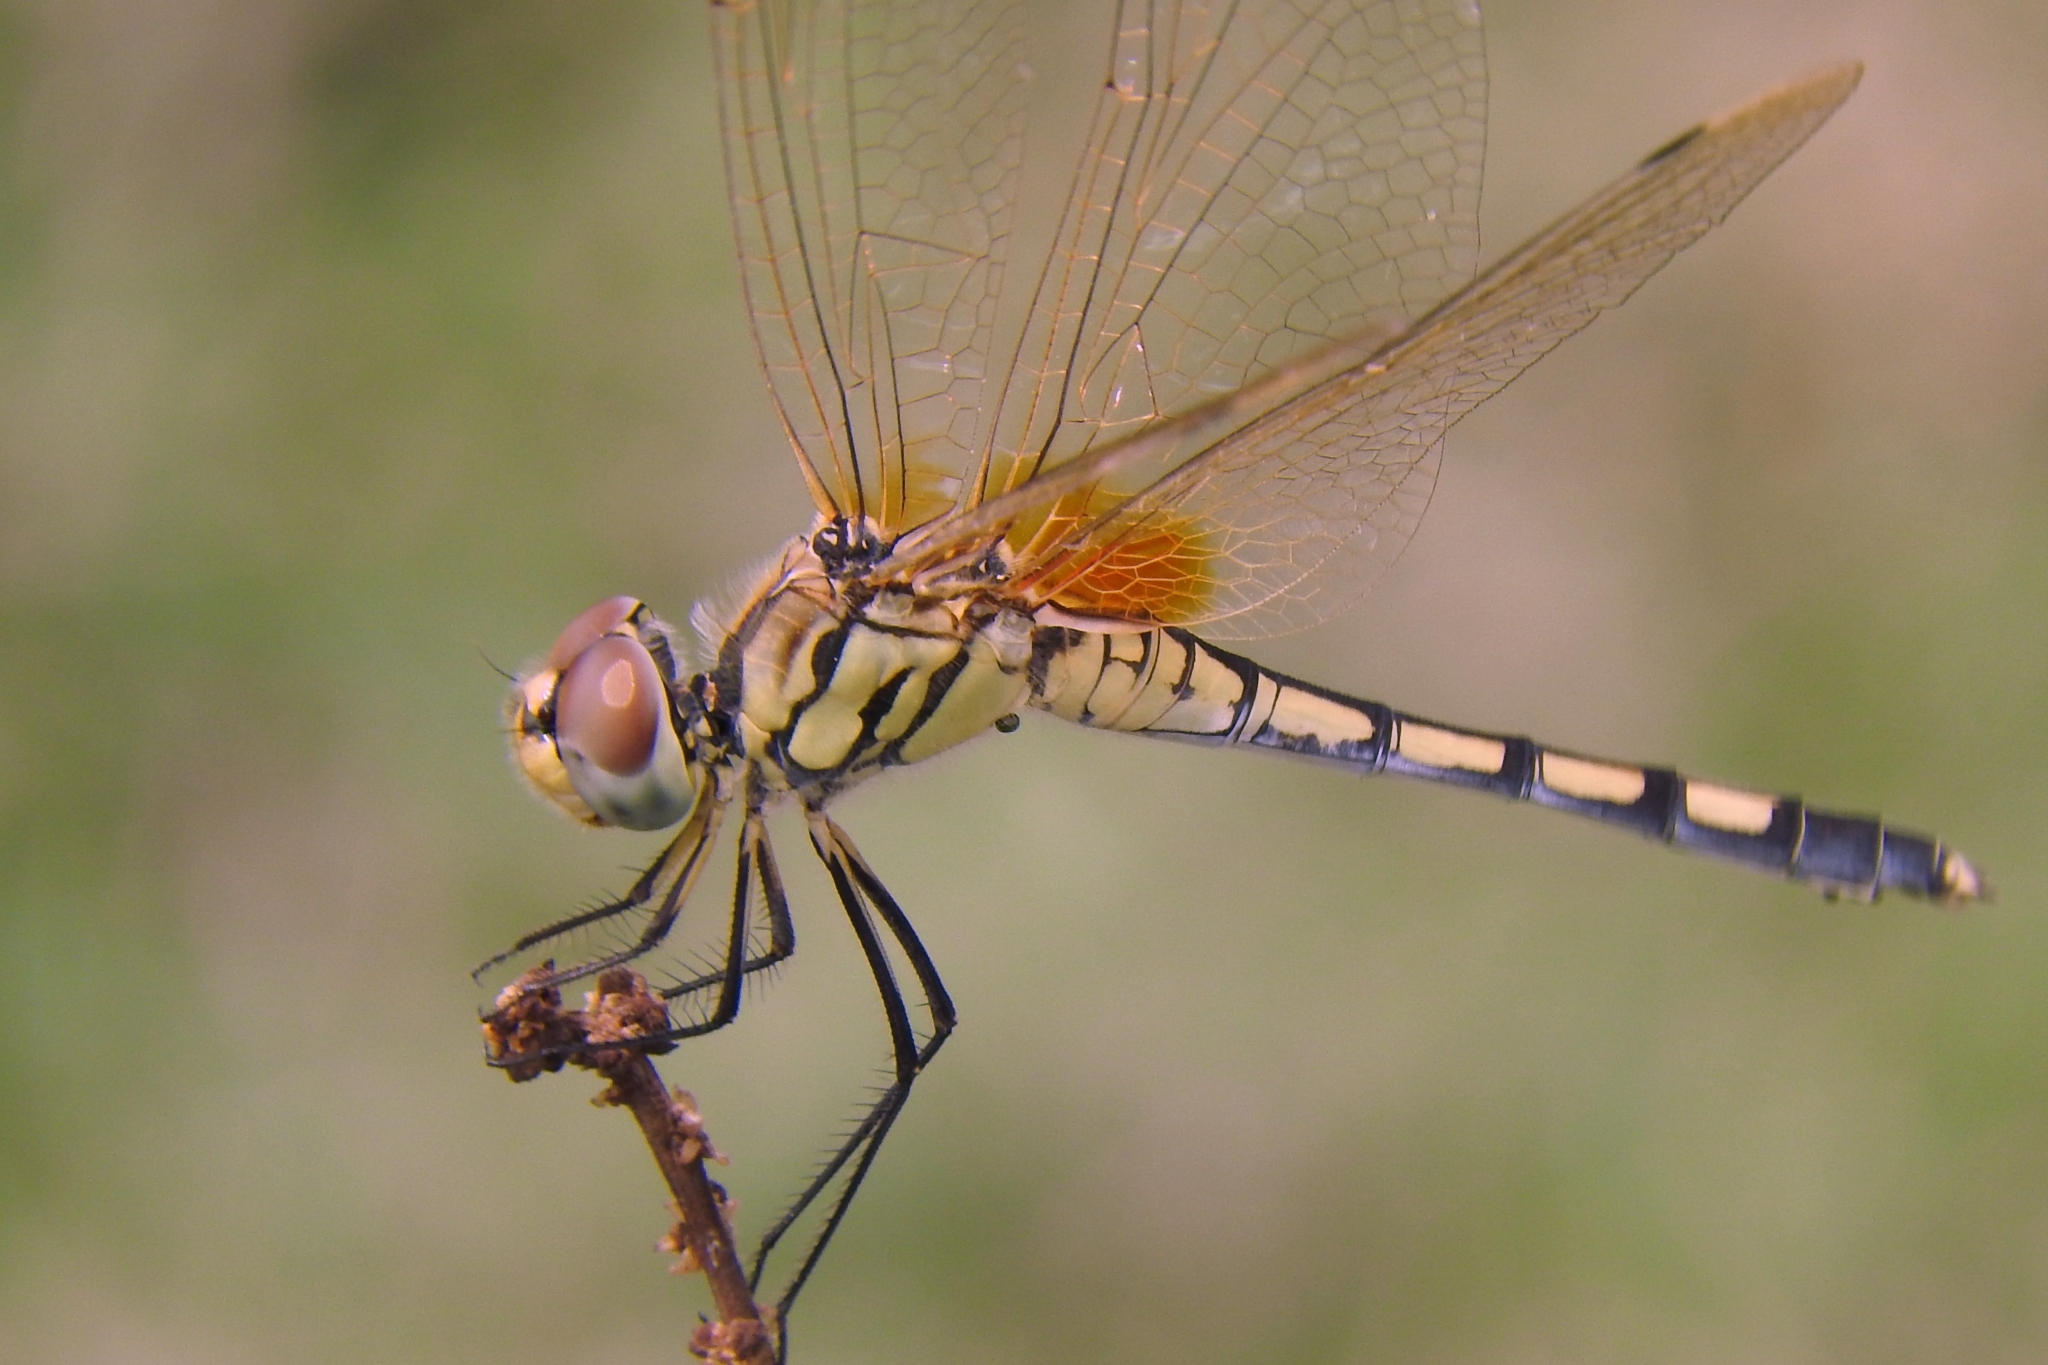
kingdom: Animalia
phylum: Arthropoda
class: Insecta
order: Odonata
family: Libellulidae
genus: Trithemis
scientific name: Trithemis pallidinervis
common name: Dancing dropwing
